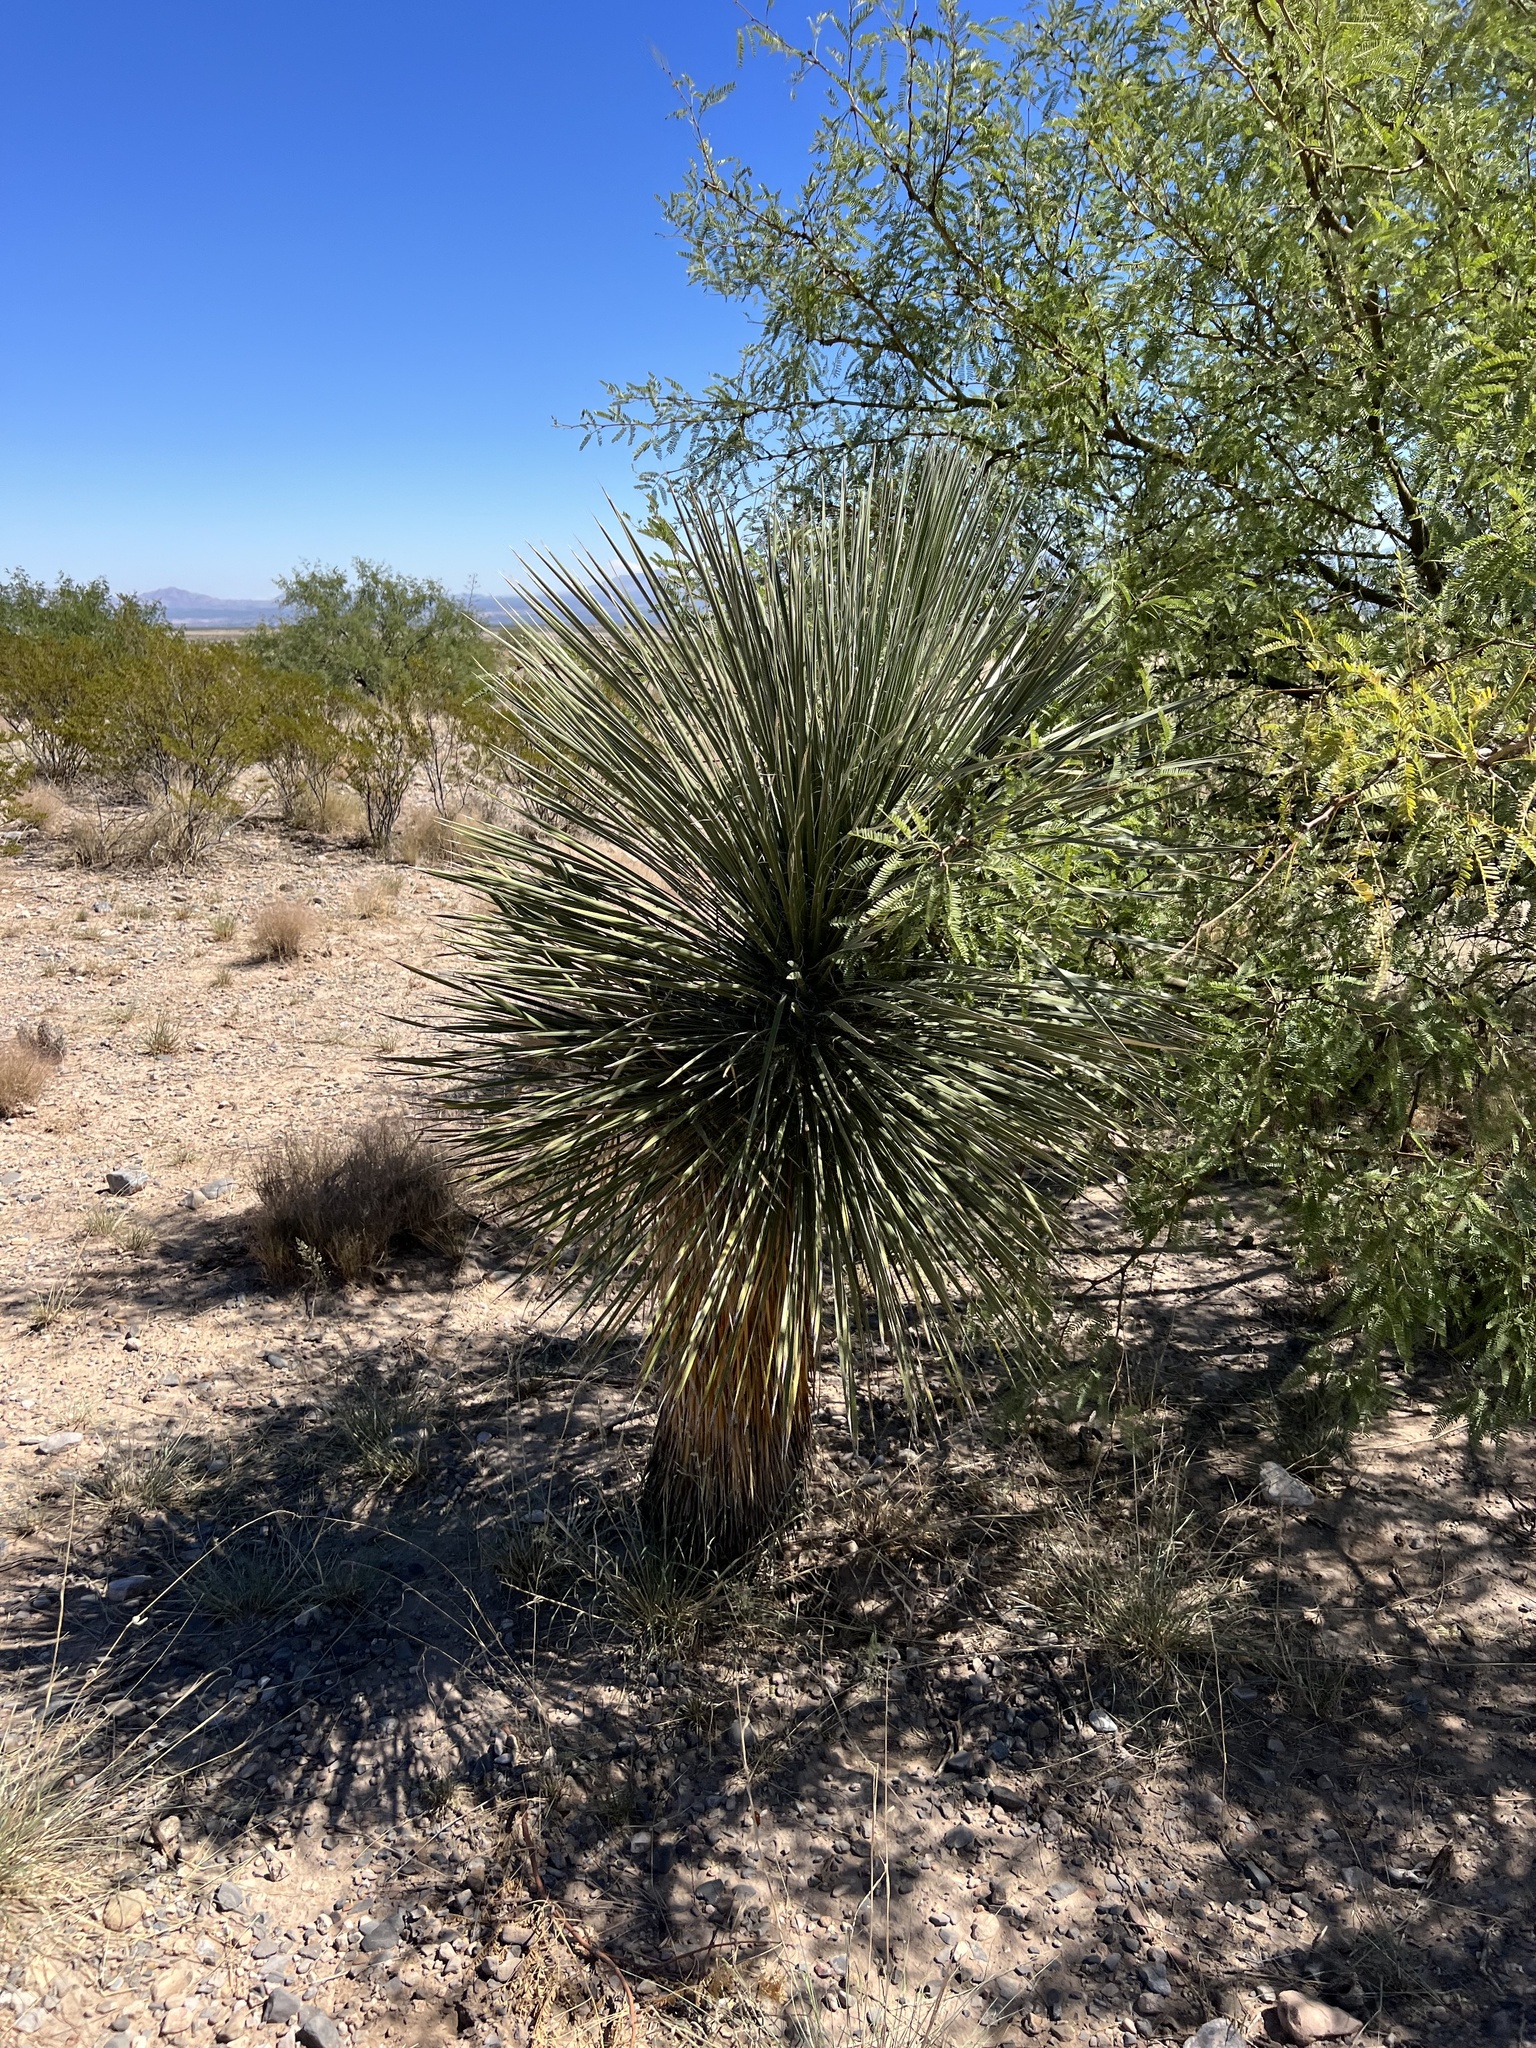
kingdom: Plantae
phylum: Tracheophyta
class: Liliopsida
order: Asparagales
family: Asparagaceae
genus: Yucca
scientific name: Yucca elata
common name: Palmella
